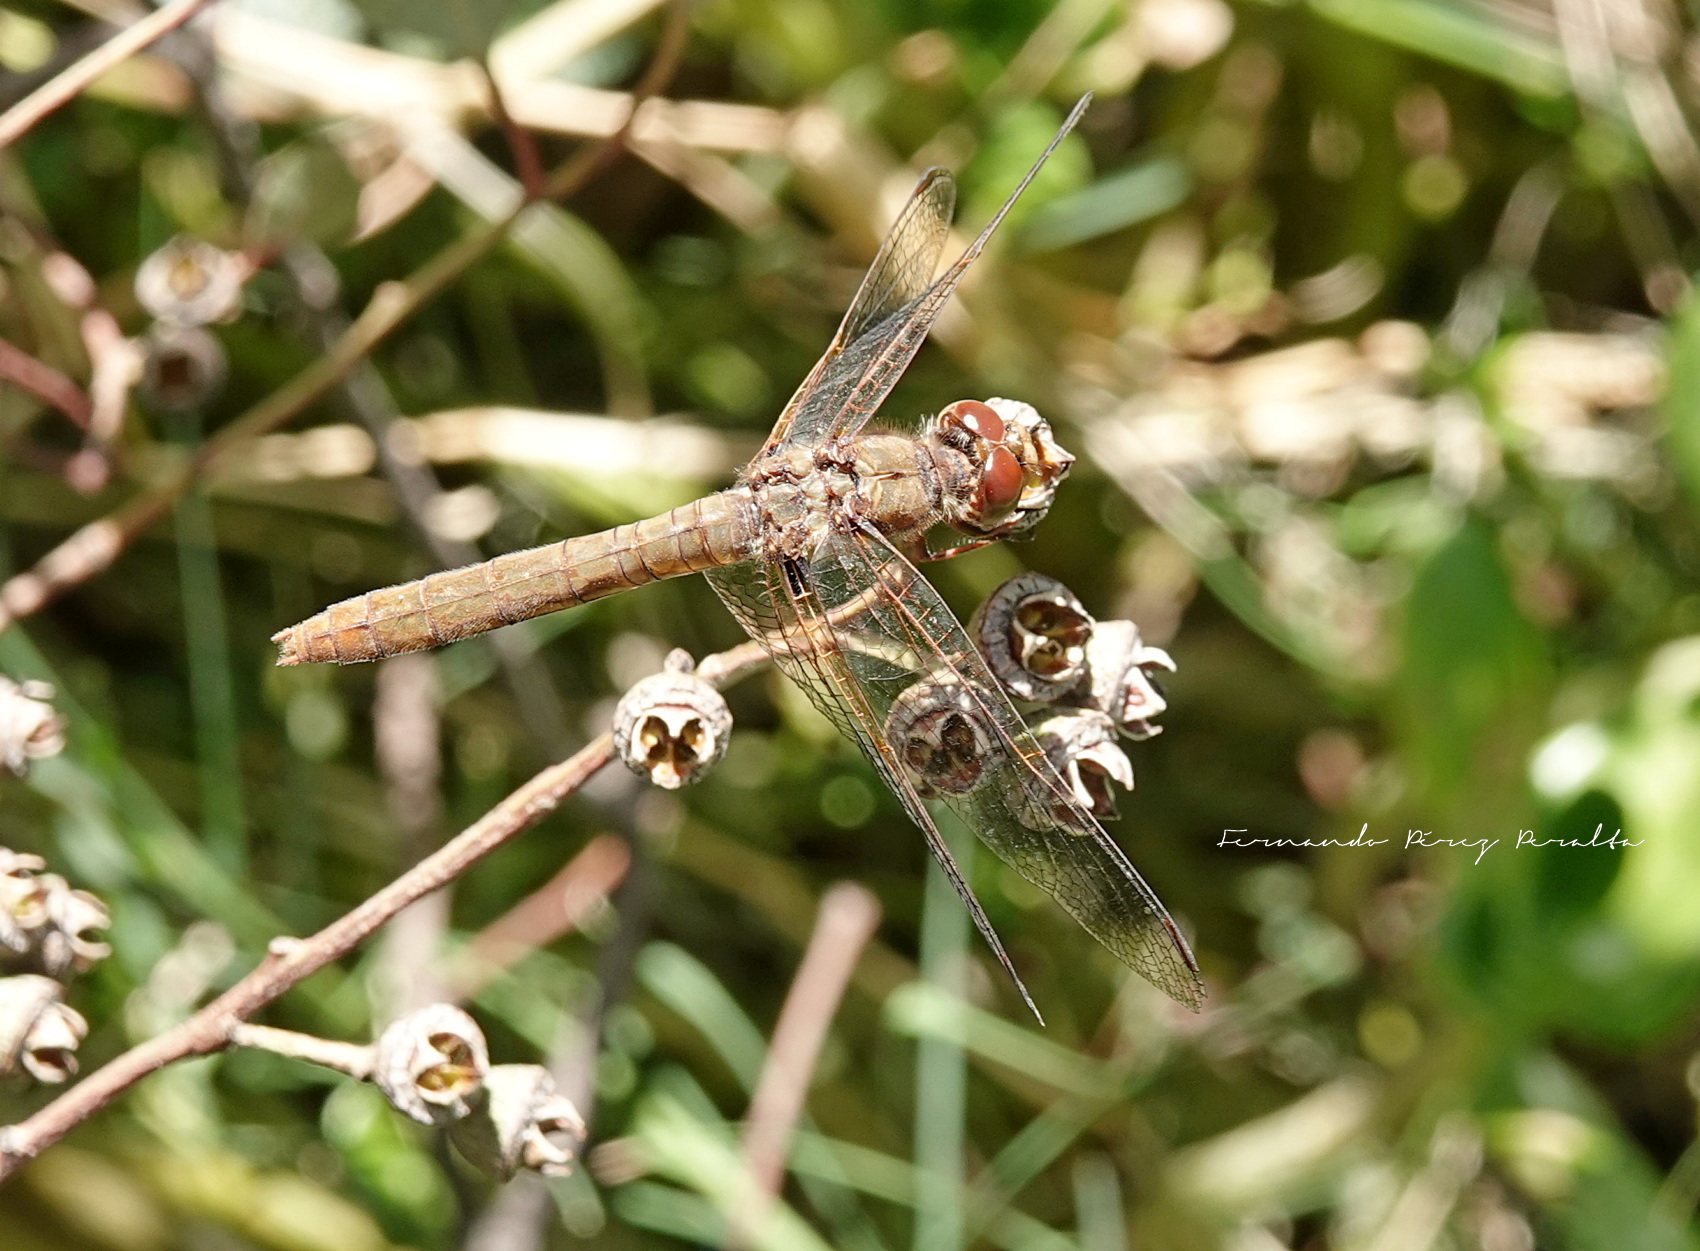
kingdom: Animalia
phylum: Arthropoda
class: Insecta
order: Odonata
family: Libellulidae
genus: Sympetrum
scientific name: Sympetrum illotum
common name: Cardinal meadowhawk
